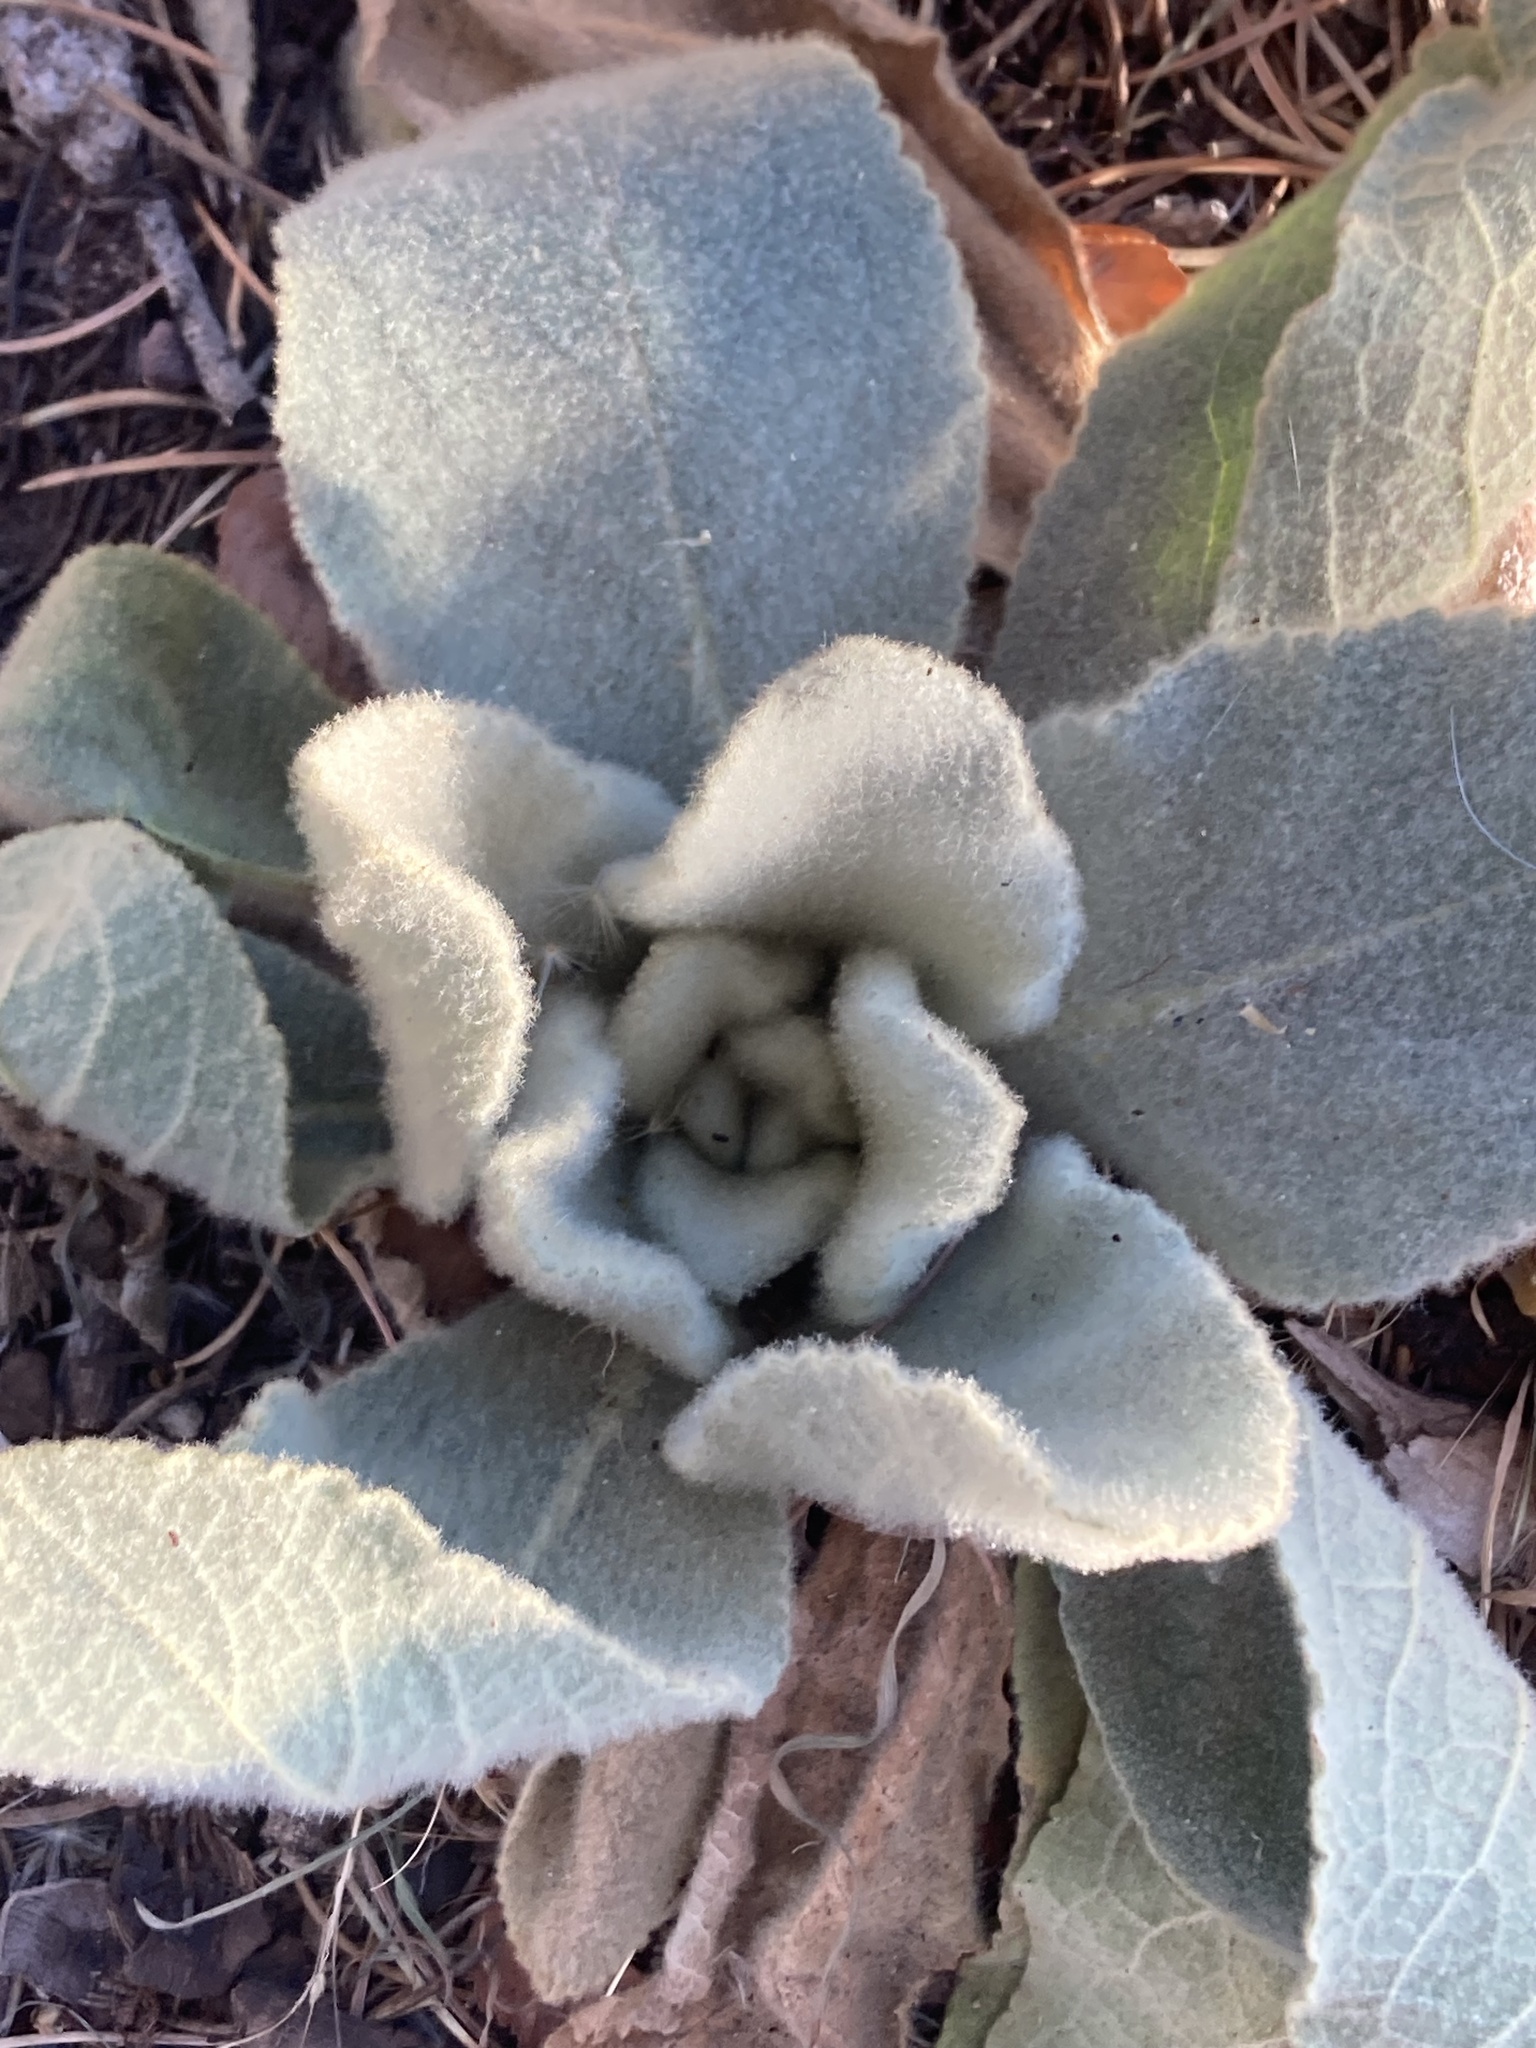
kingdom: Plantae
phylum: Tracheophyta
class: Magnoliopsida
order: Lamiales
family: Scrophulariaceae
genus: Verbascum
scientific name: Verbascum thapsus
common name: Common mullein
